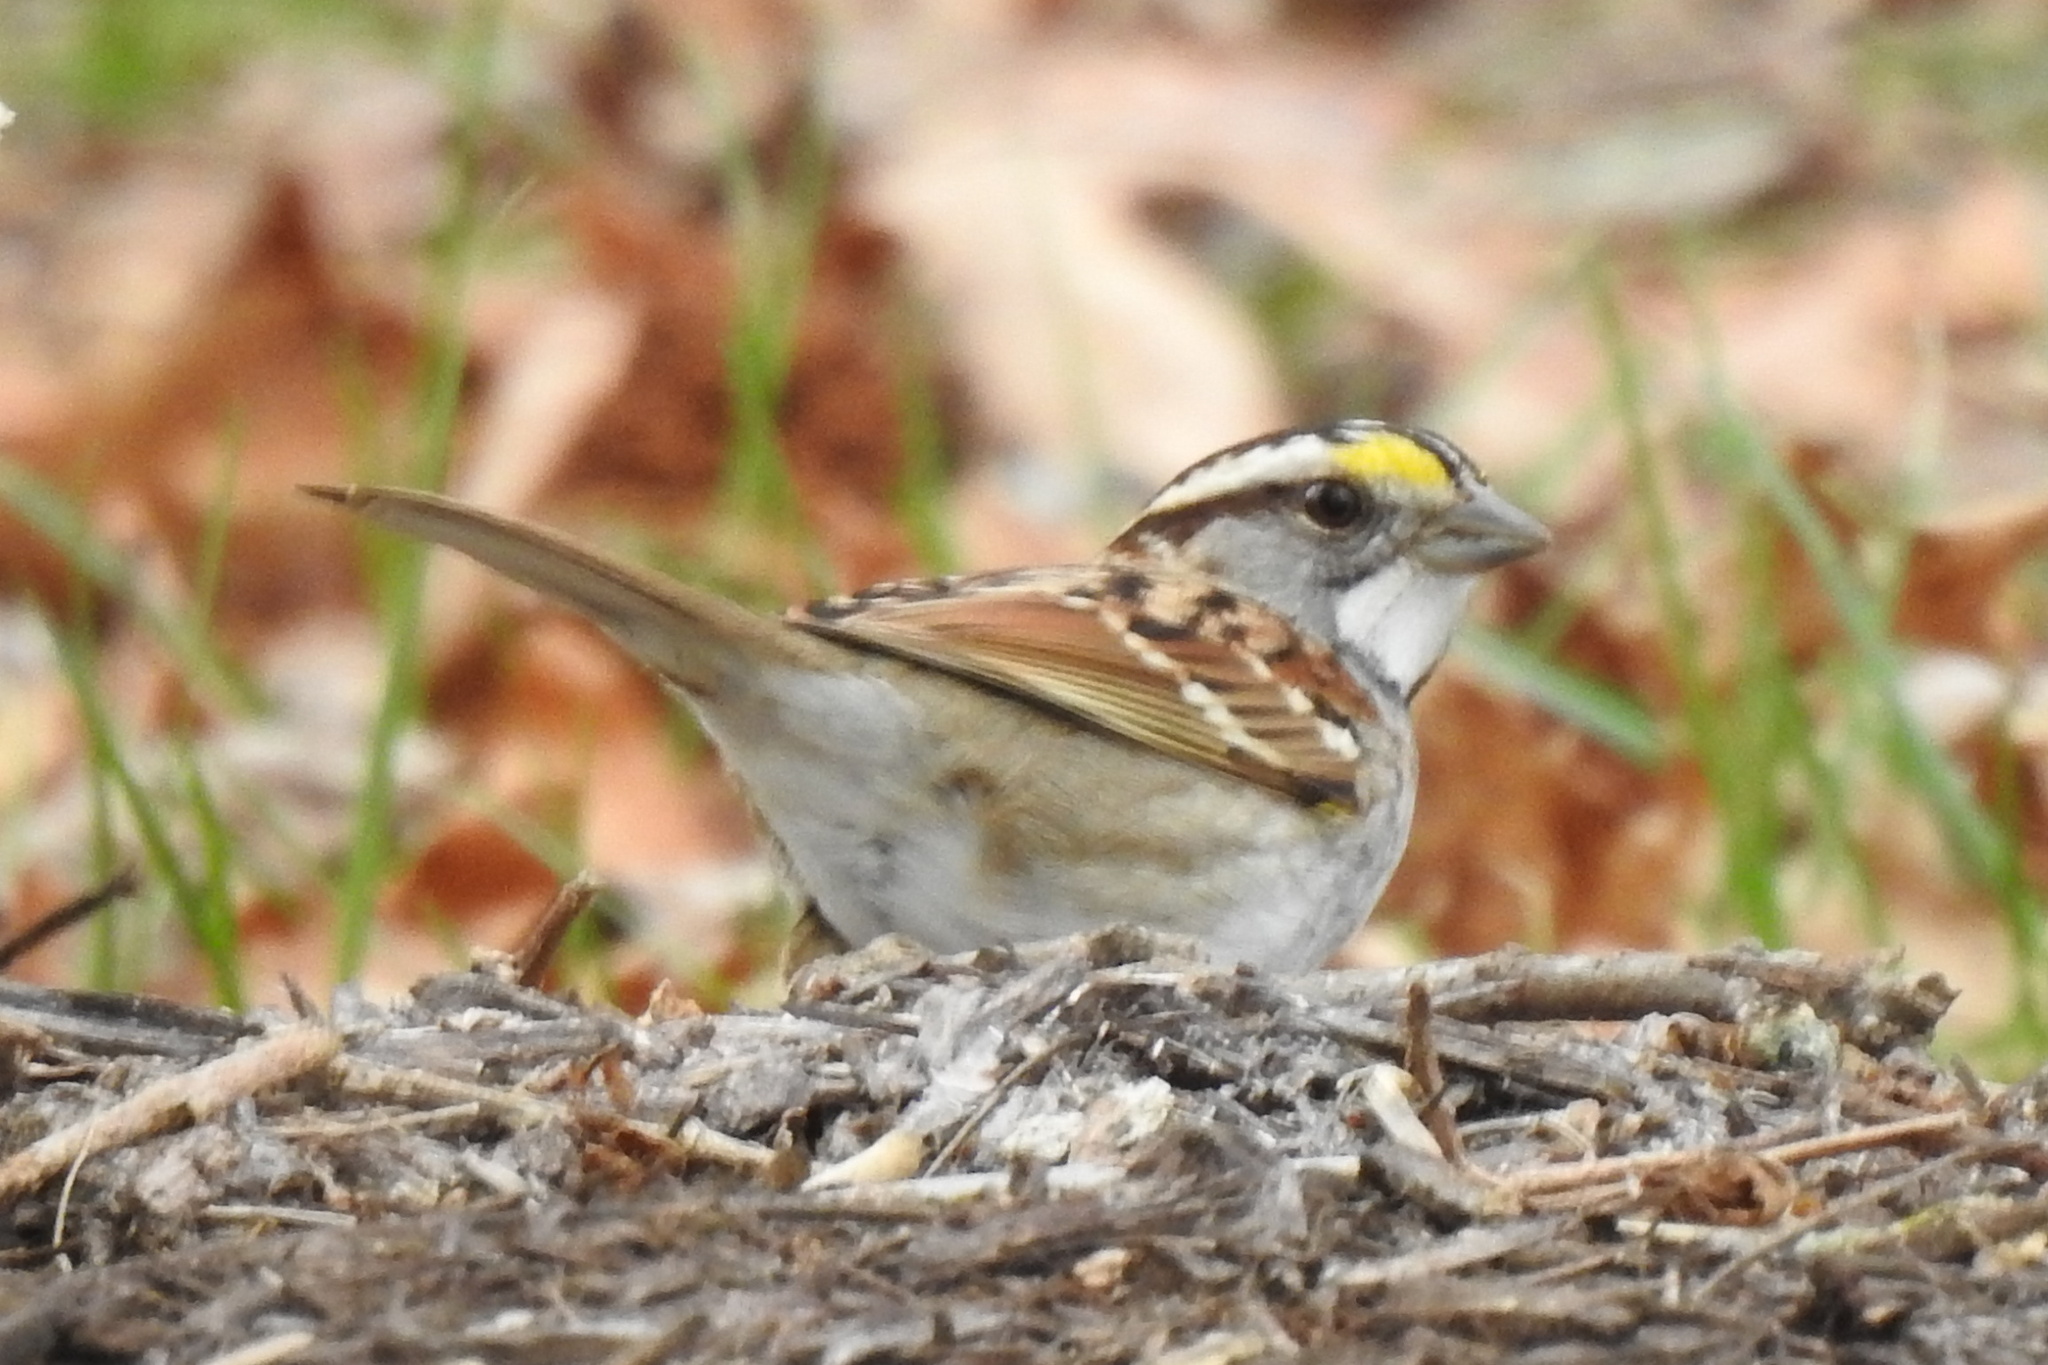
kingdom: Animalia
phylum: Chordata
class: Aves
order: Passeriformes
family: Passerellidae
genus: Zonotrichia
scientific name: Zonotrichia albicollis
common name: White-throated sparrow
